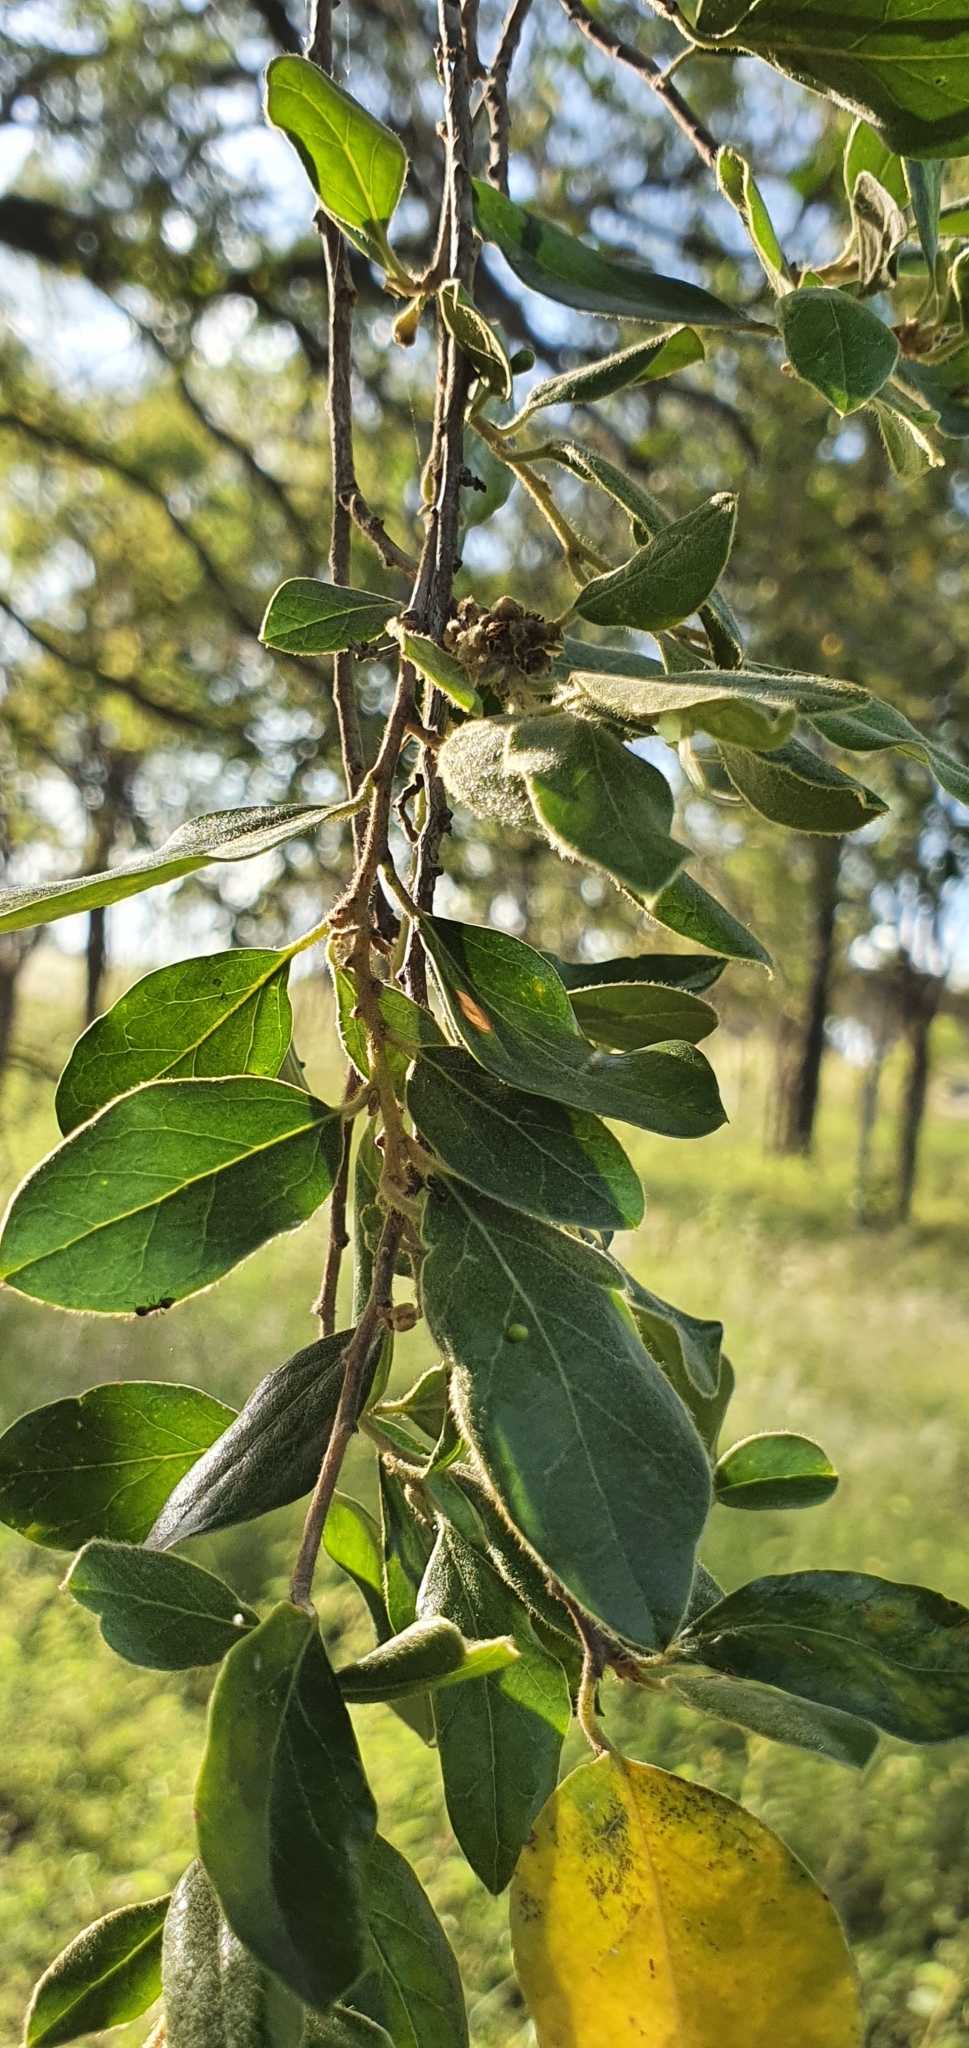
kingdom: Plantae
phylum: Tracheophyta
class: Magnoliopsida
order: Malpighiales
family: Picrodendraceae
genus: Petalostigma
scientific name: Petalostigma pubescens
